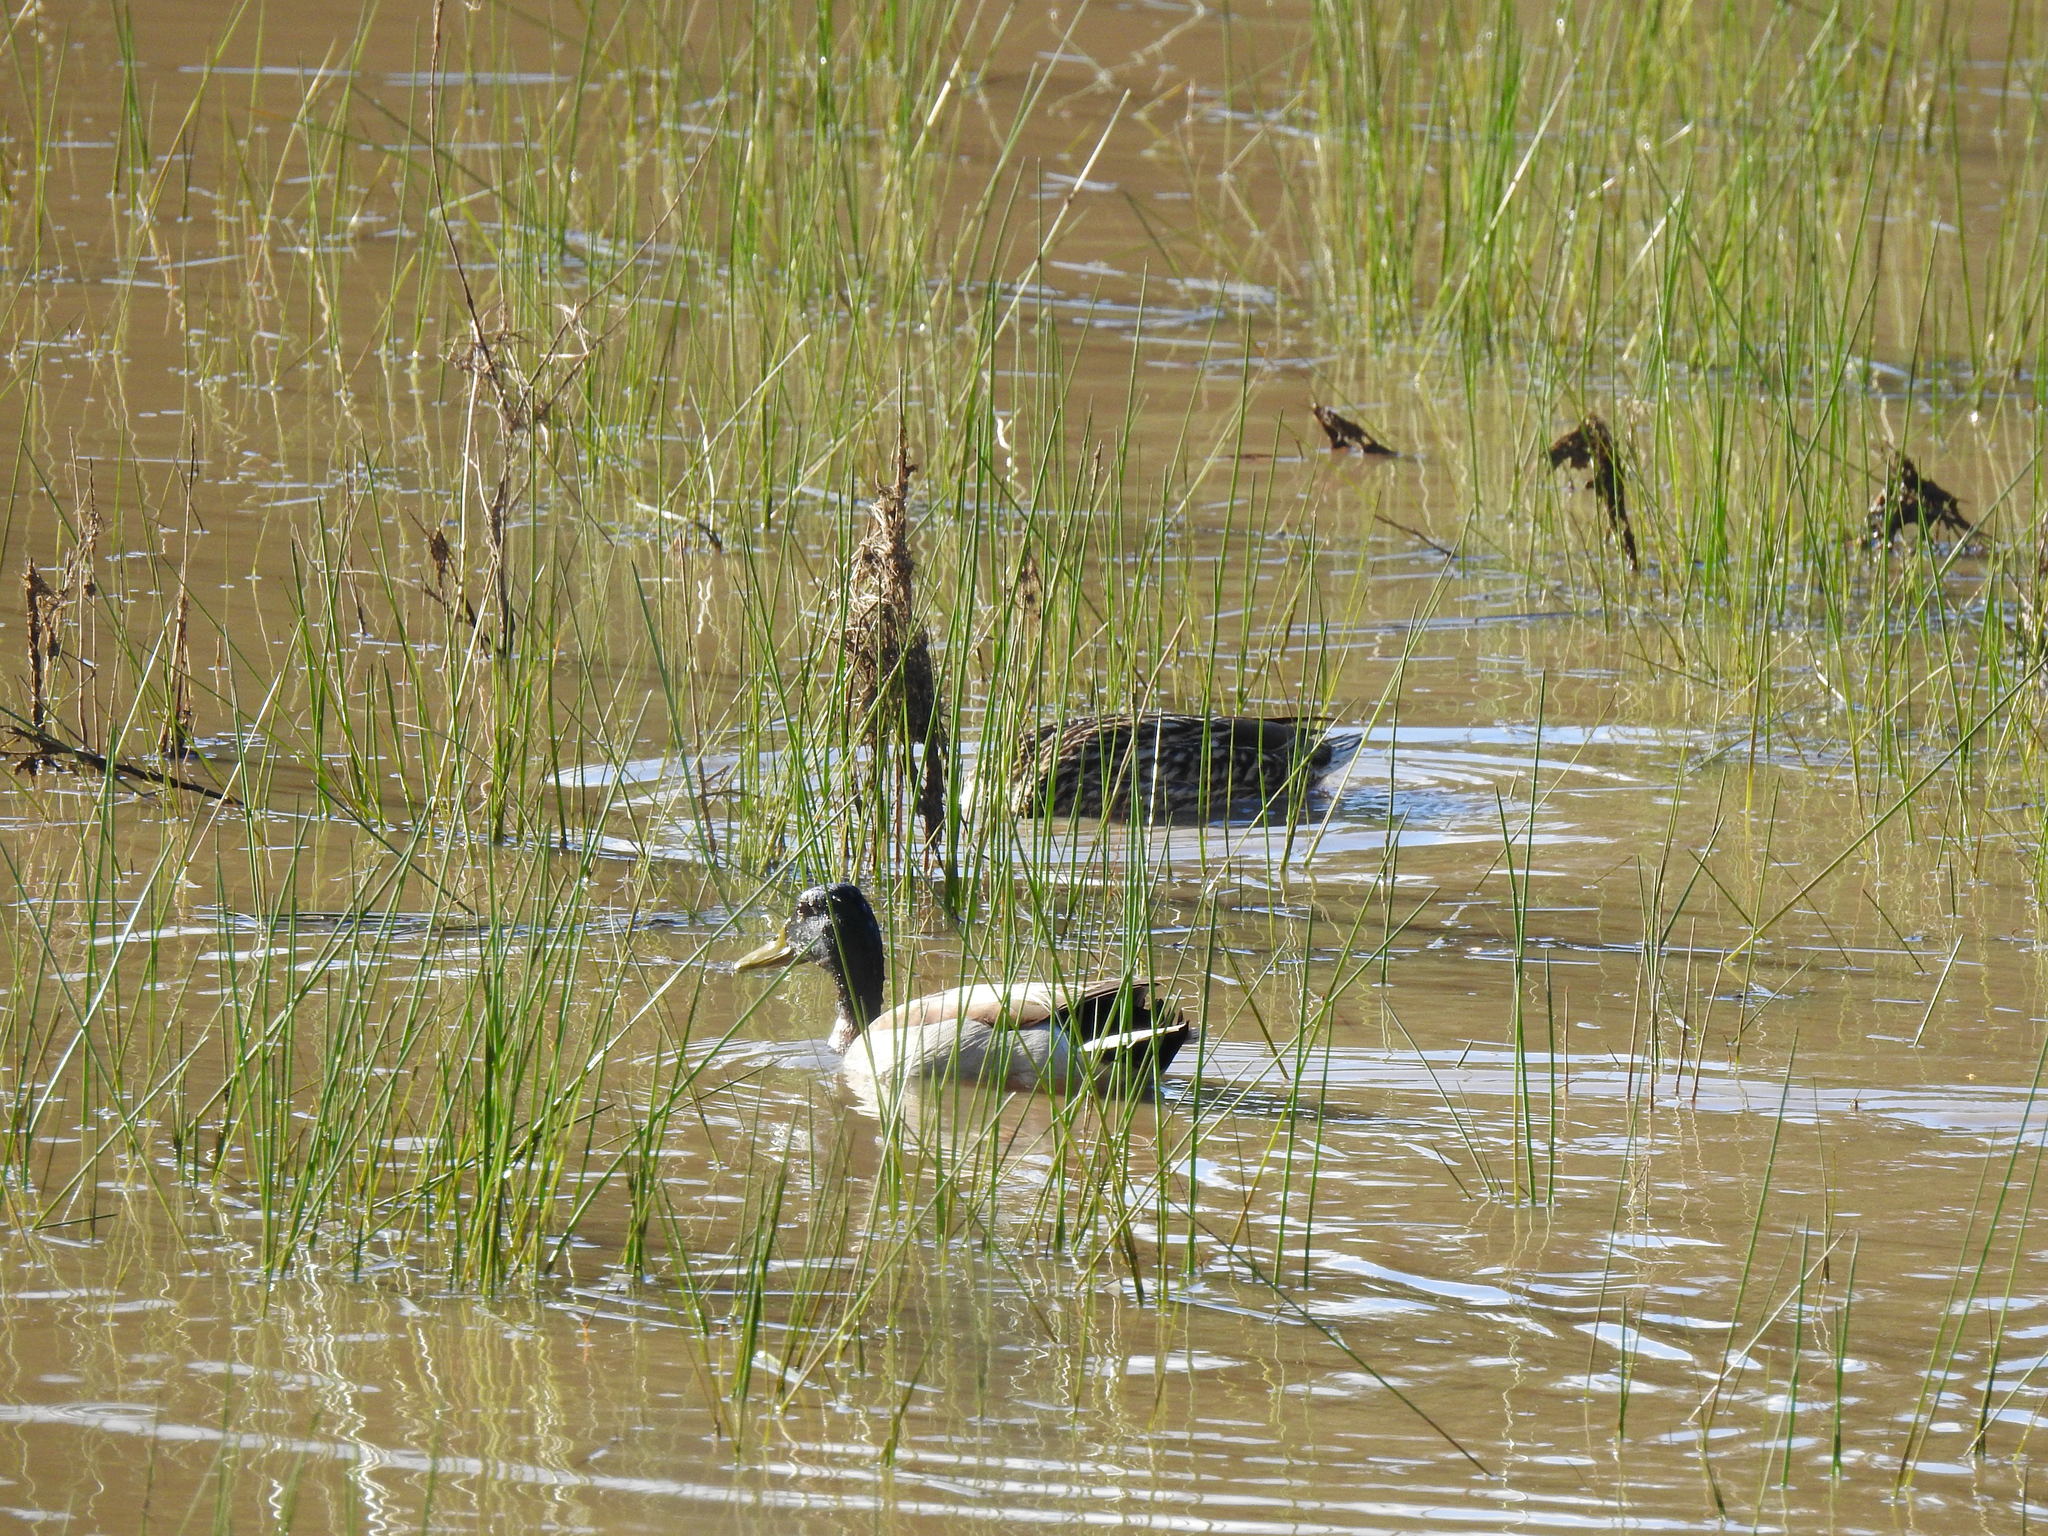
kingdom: Animalia
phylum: Chordata
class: Aves
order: Anseriformes
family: Anatidae
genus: Anas
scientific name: Anas platyrhynchos
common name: Mallard
